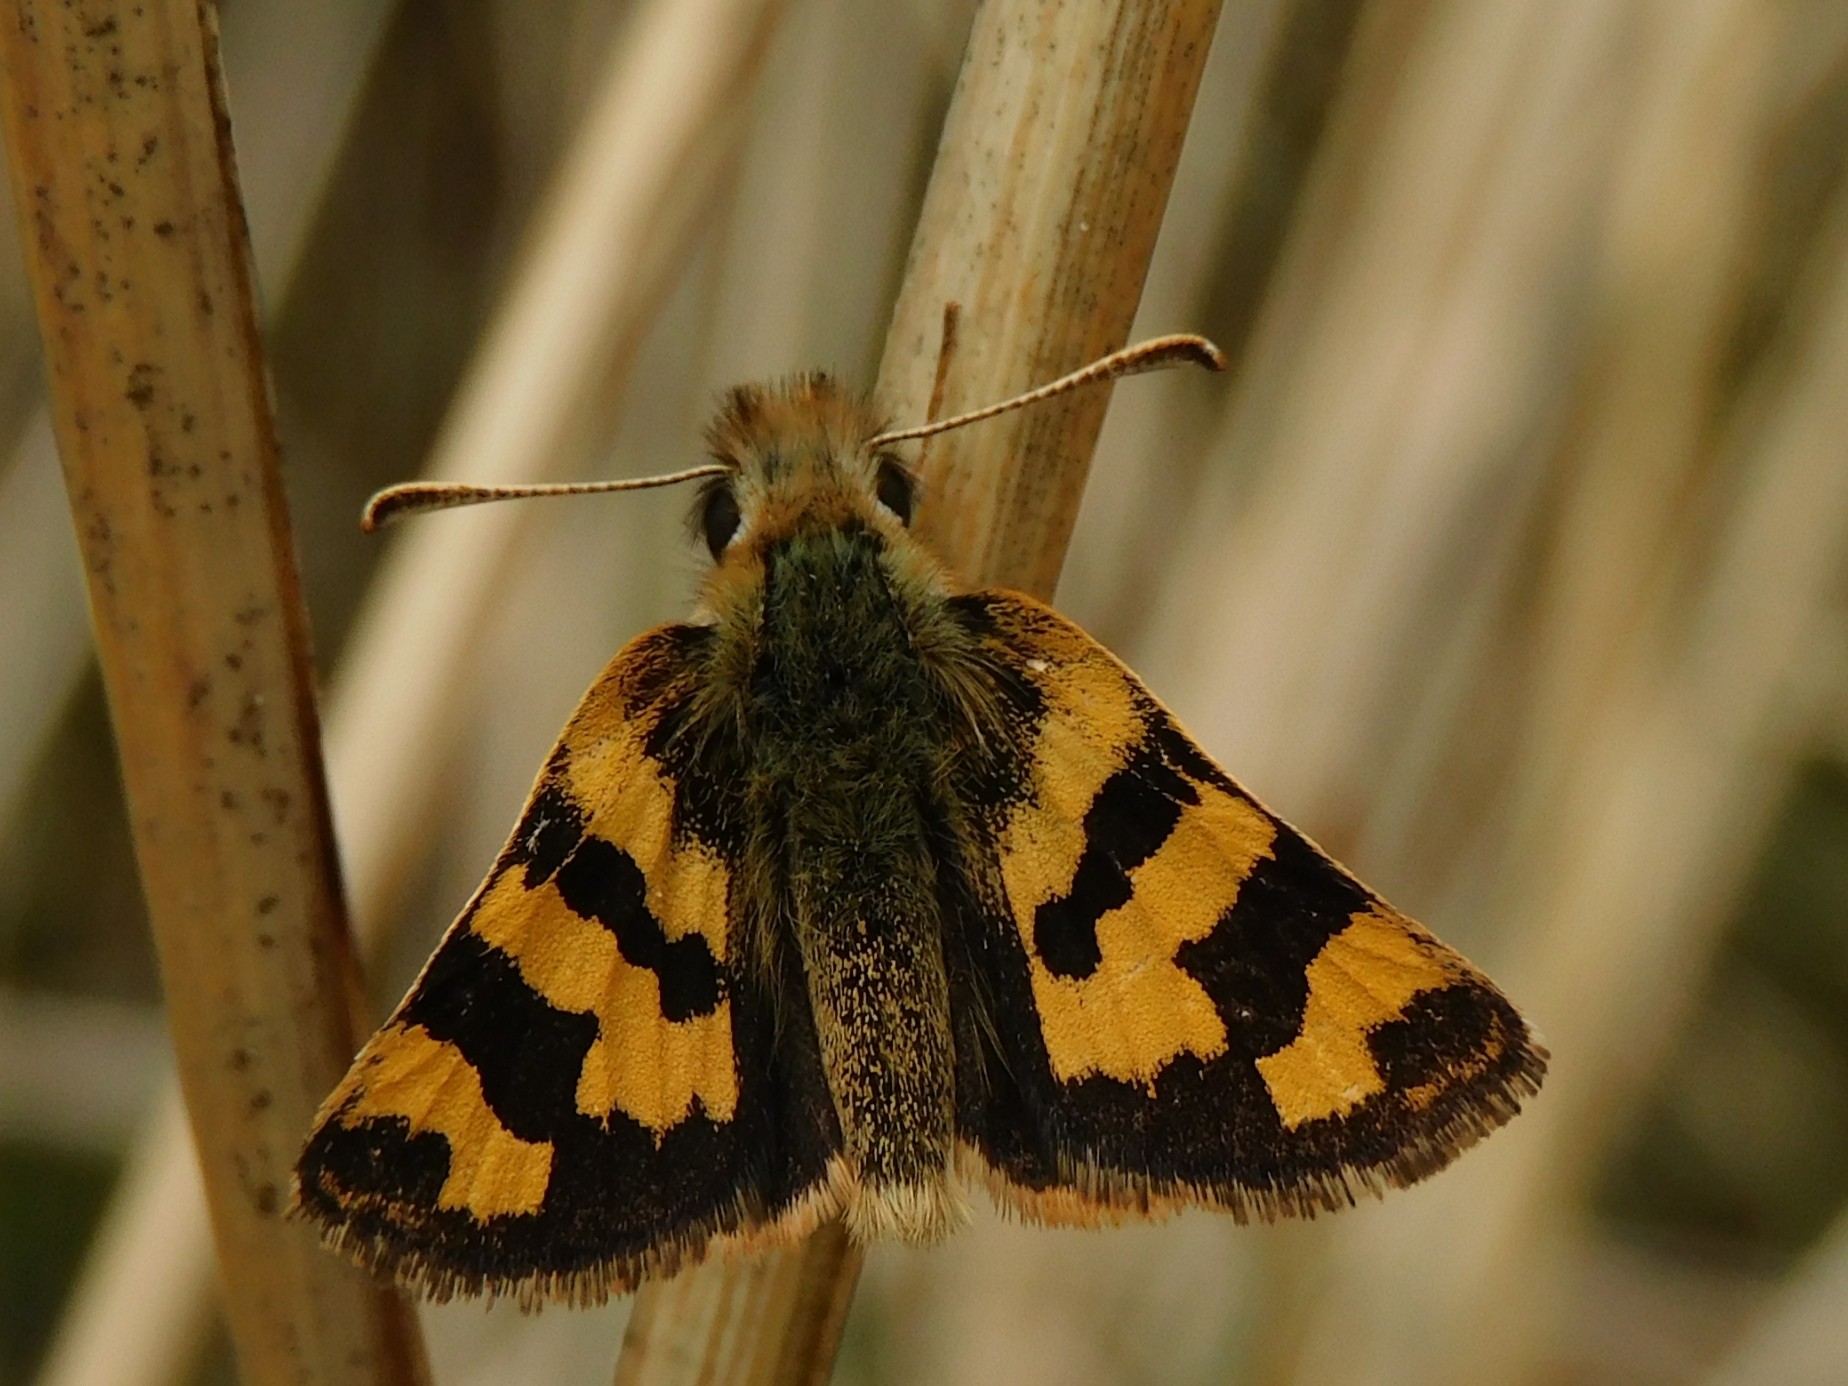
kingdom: Animalia
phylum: Arthropoda
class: Insecta
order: Lepidoptera
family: Hesperiidae
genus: Carterocephalus
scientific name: Carterocephalus avanti
